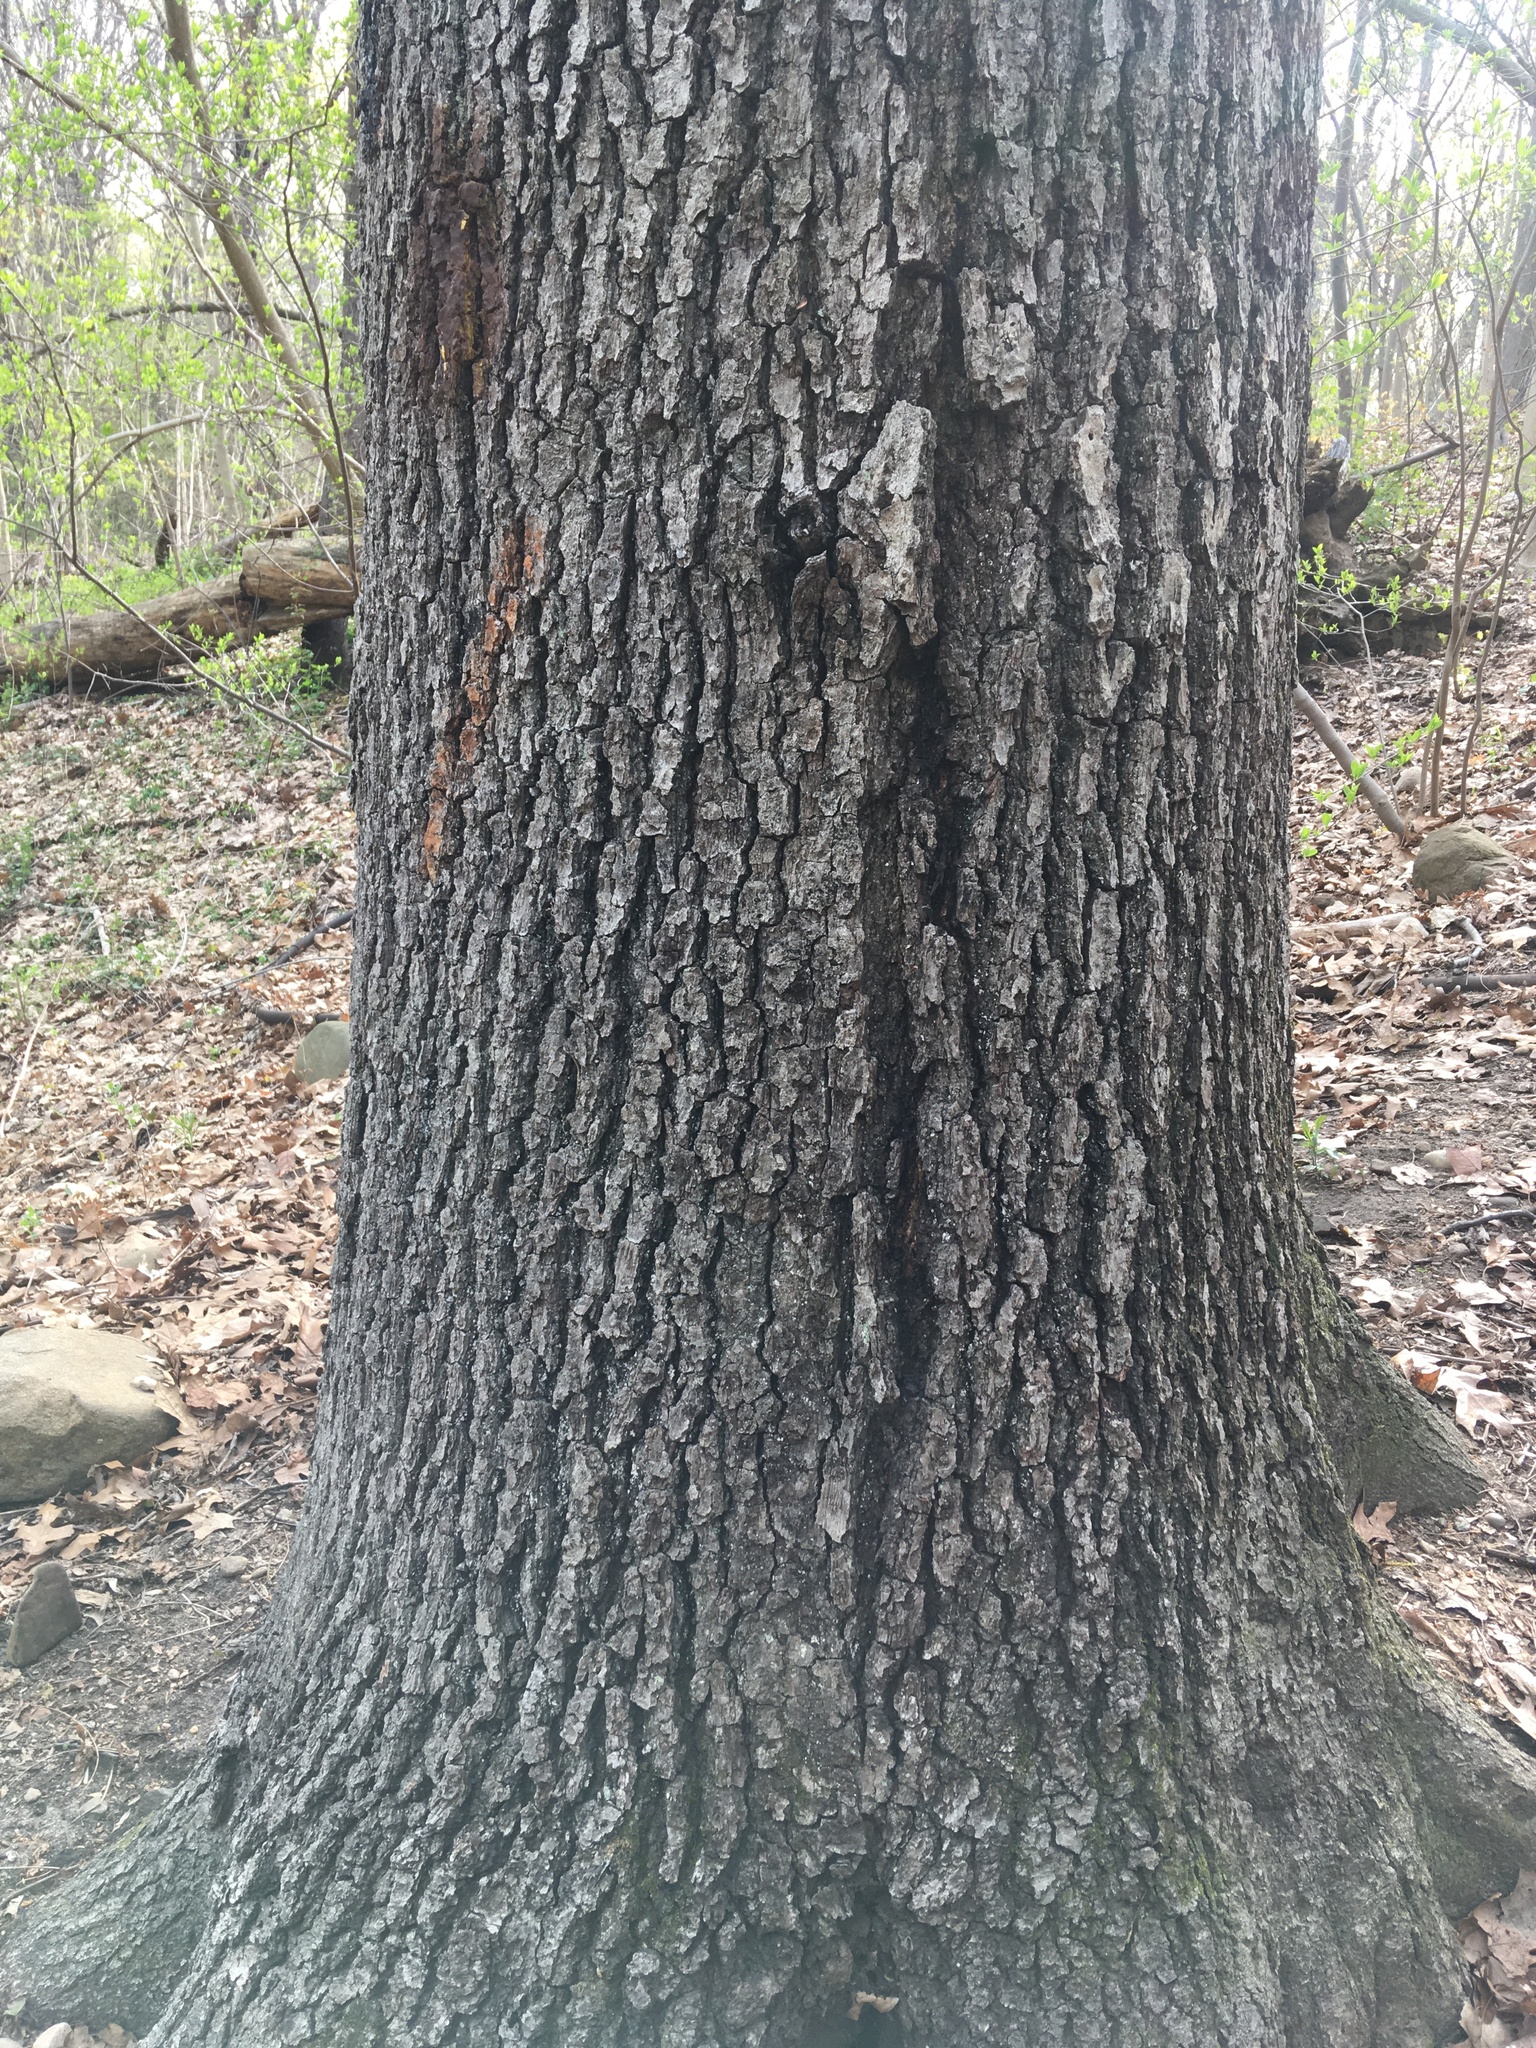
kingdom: Plantae
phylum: Tracheophyta
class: Magnoliopsida
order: Fagales
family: Fagaceae
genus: Quercus
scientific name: Quercus velutina
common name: Black oak
